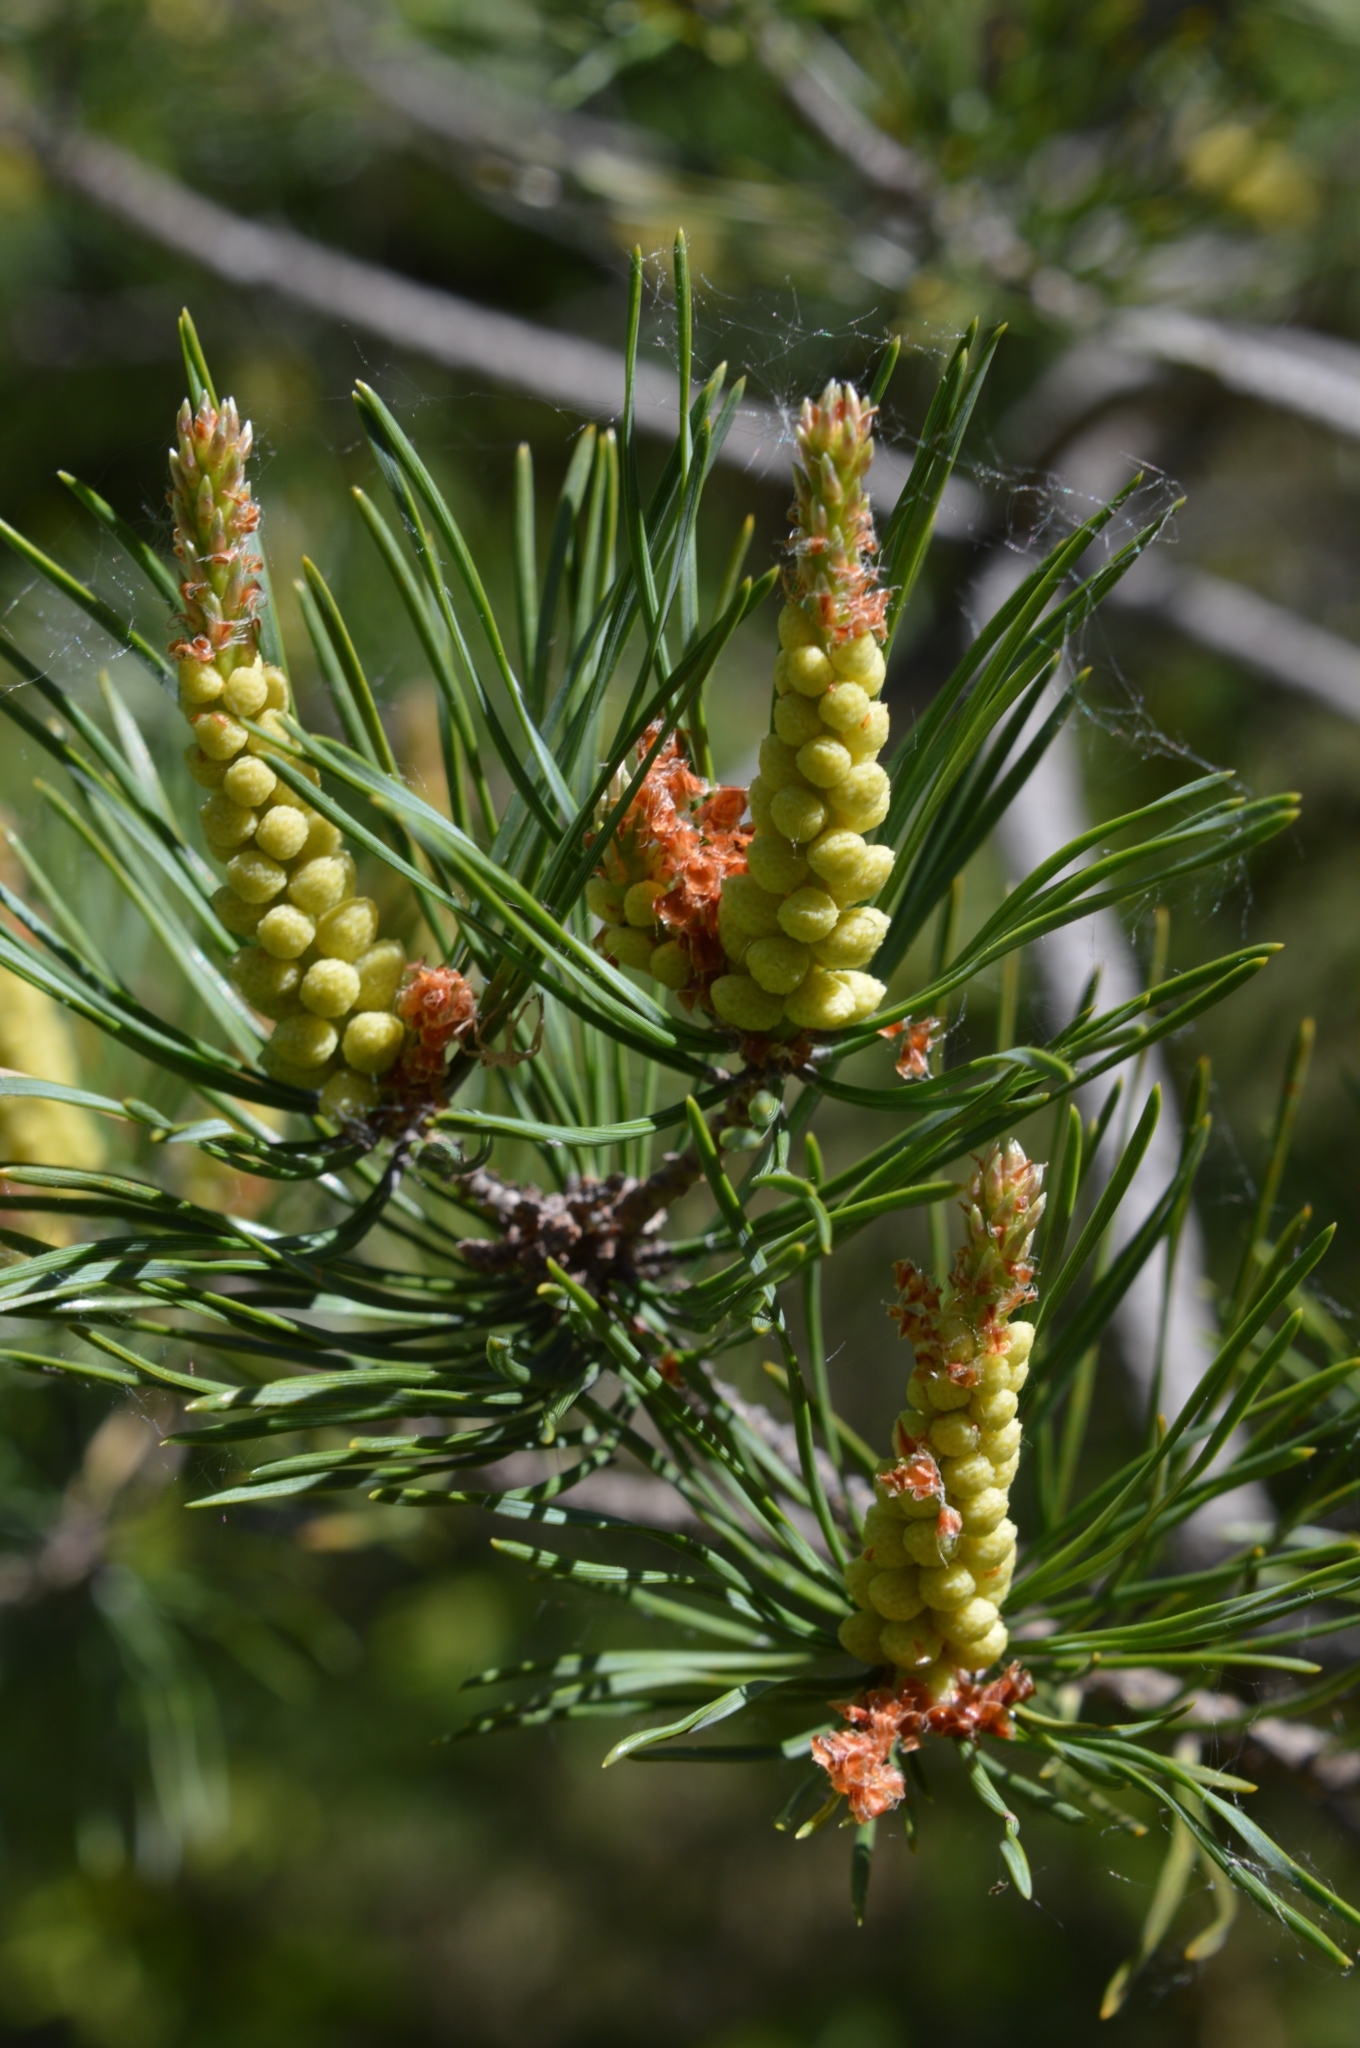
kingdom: Plantae
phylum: Tracheophyta
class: Pinopsida
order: Pinales
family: Pinaceae
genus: Pinus
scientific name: Pinus sylvestris
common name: Scots pine
